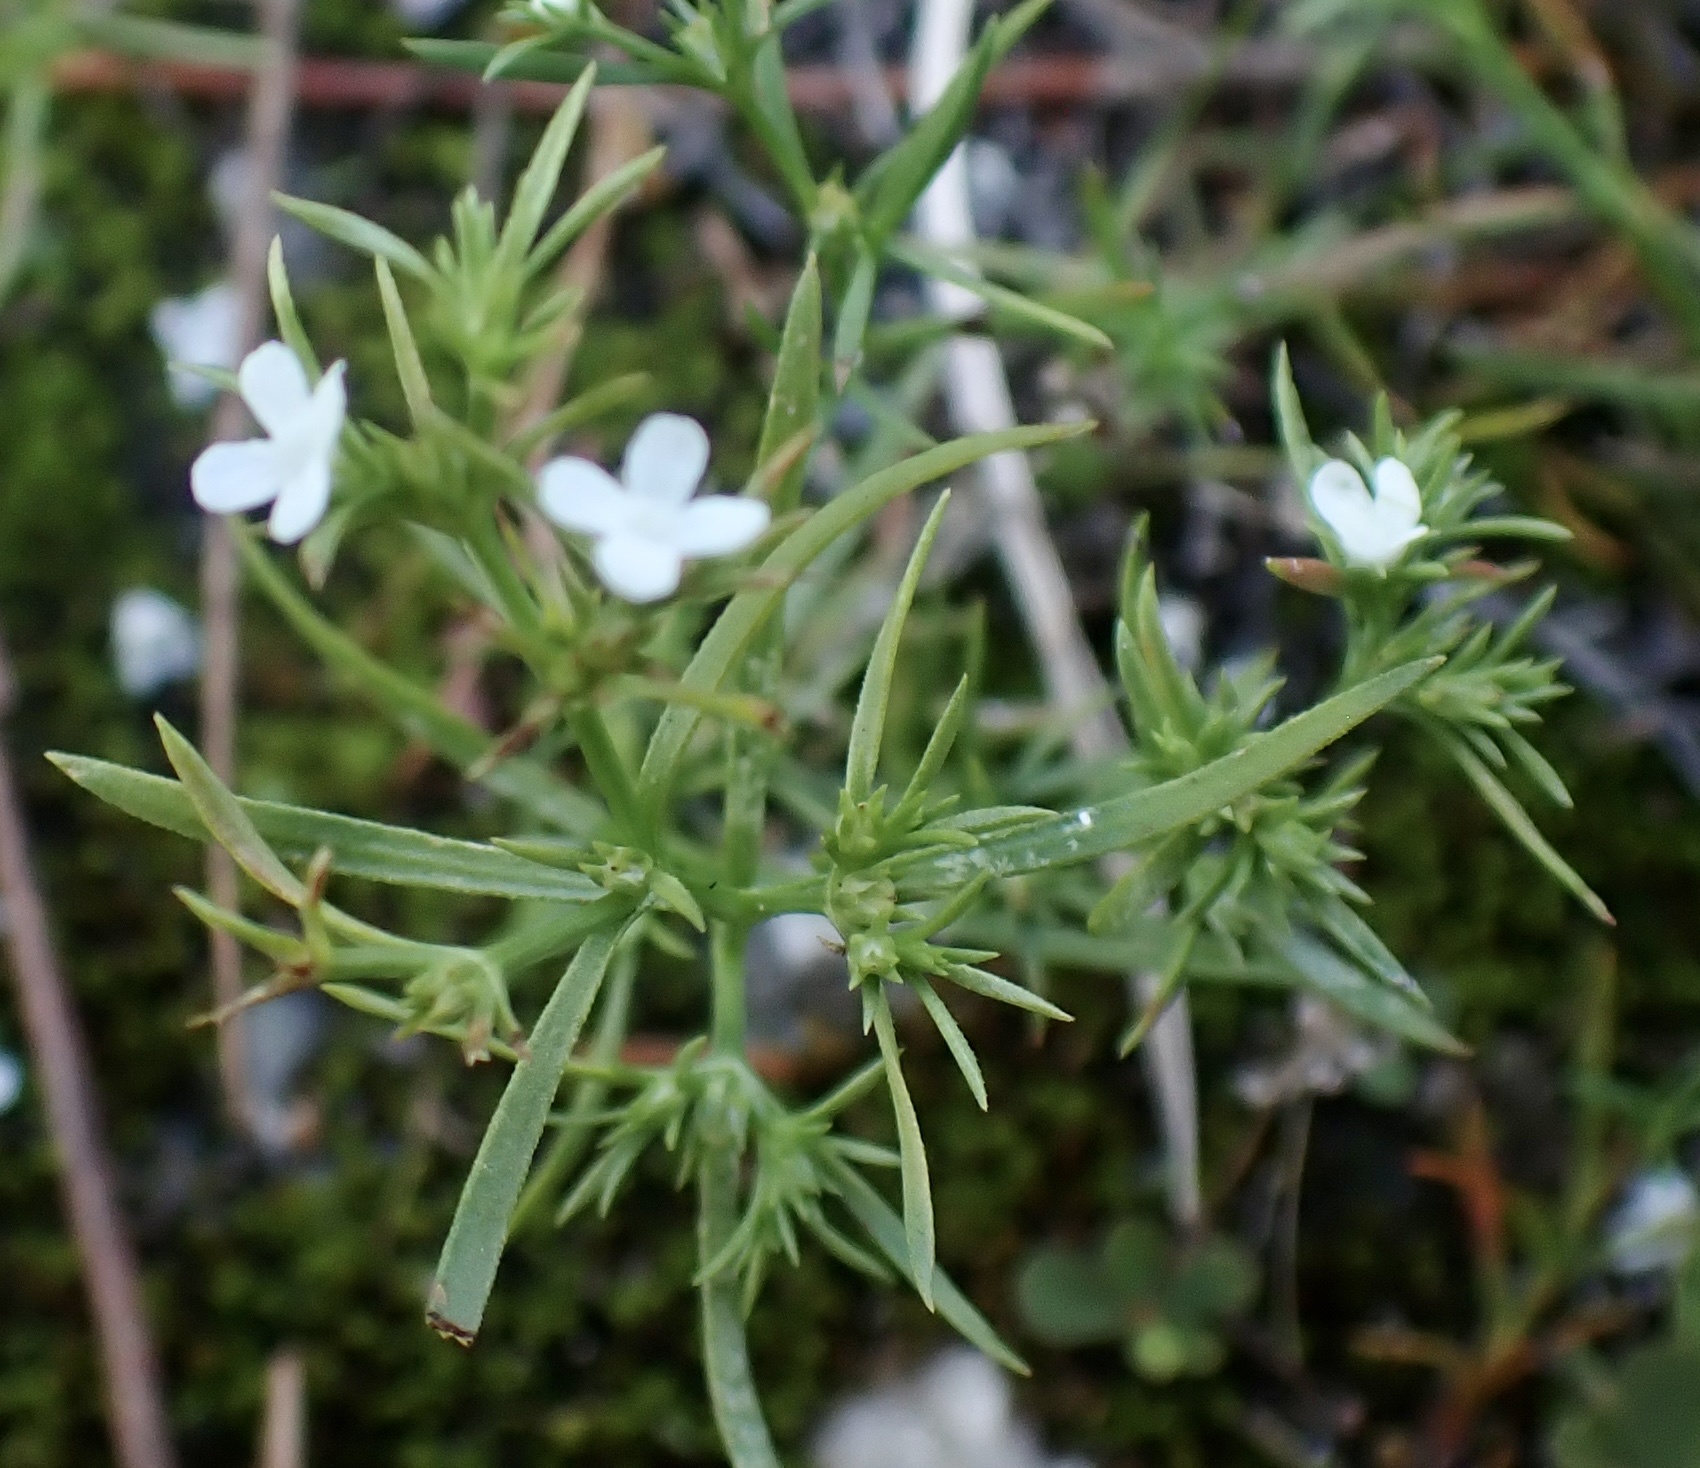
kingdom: Plantae
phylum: Tracheophyta
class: Magnoliopsida
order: Lamiales
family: Tetrachondraceae
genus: Polypremum
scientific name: Polypremum procumbens
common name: Juniper-leaf
